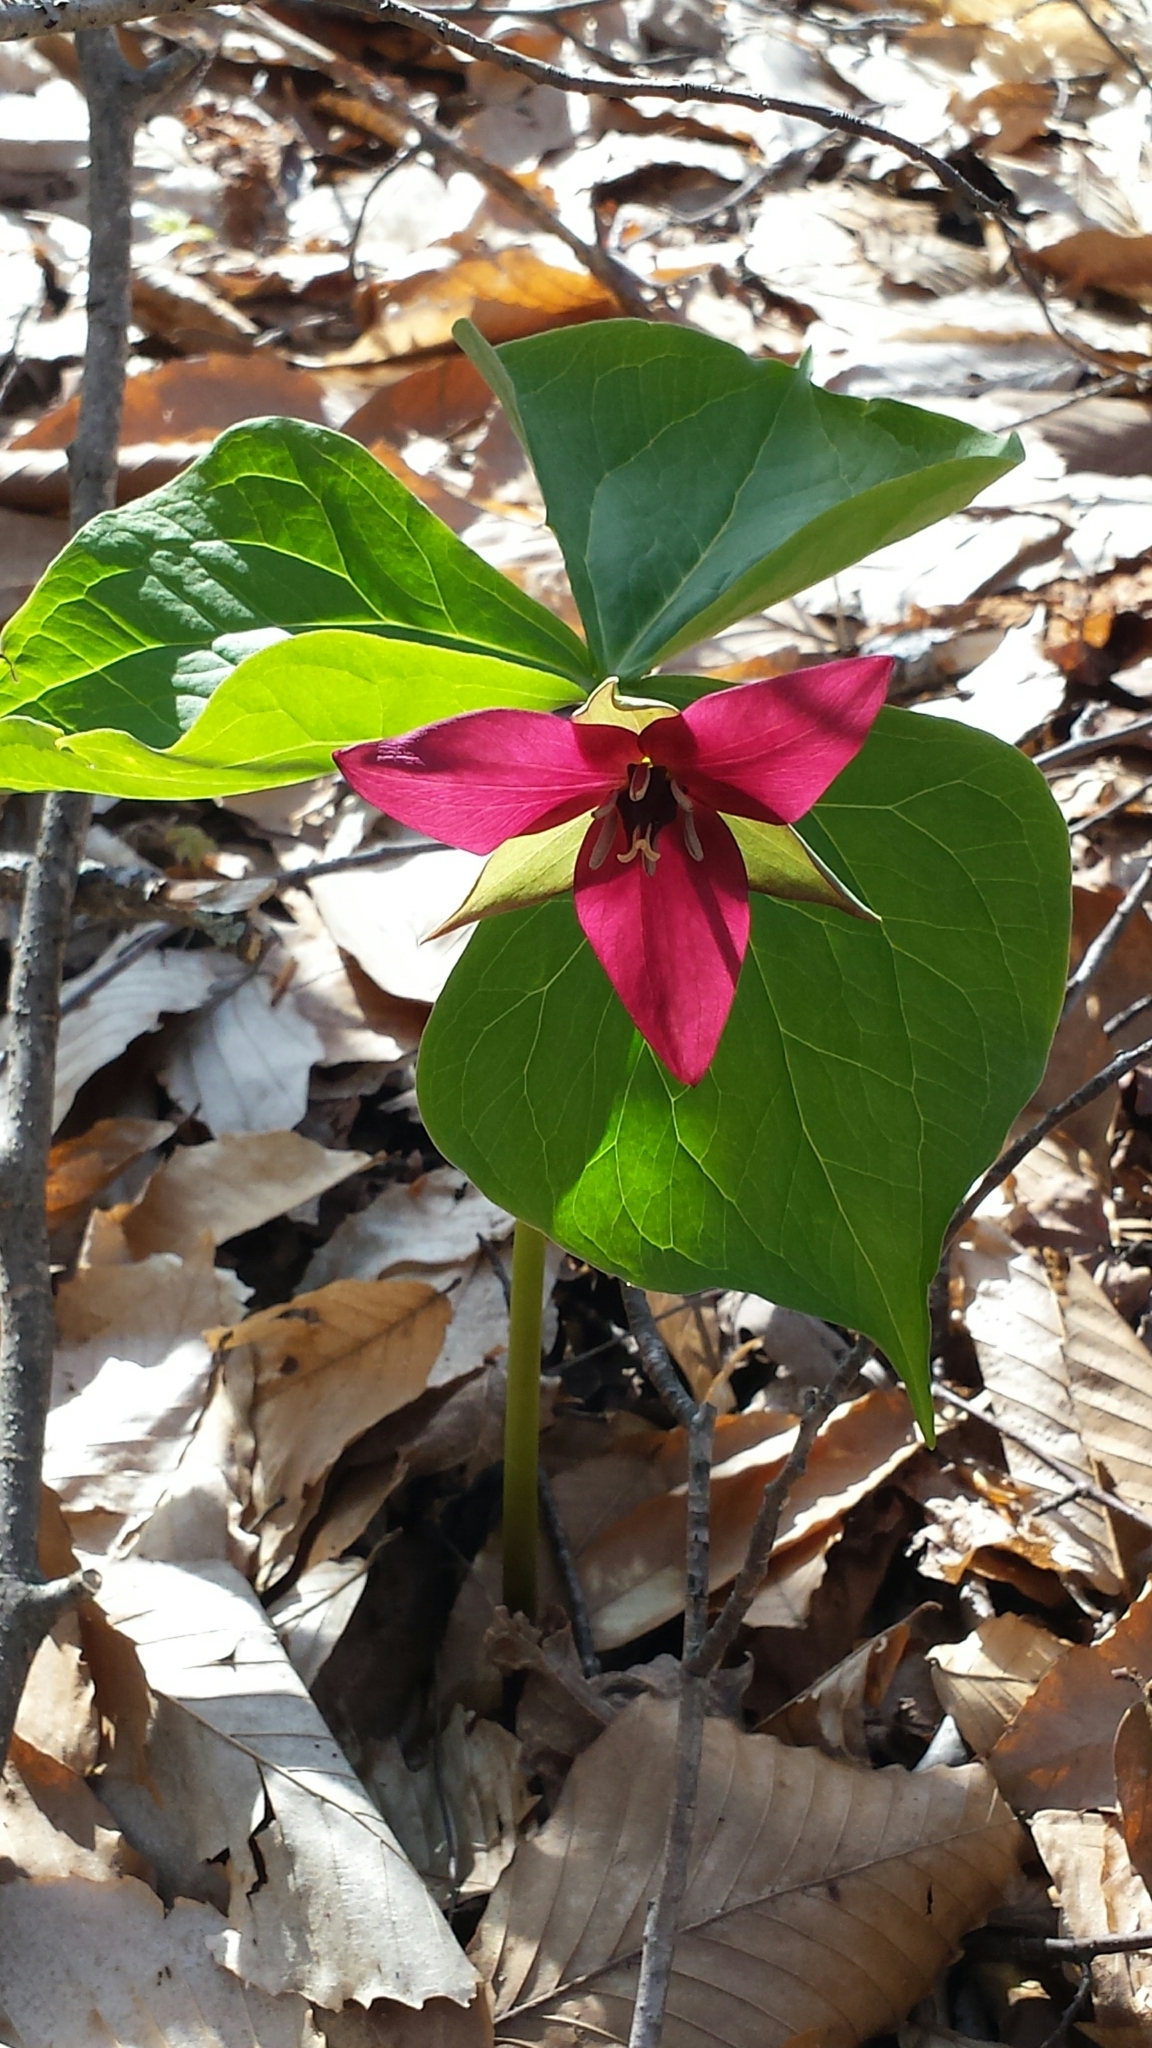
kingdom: Plantae
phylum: Tracheophyta
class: Liliopsida
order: Liliales
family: Melanthiaceae
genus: Trillium
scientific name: Trillium erectum
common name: Purple trillium
